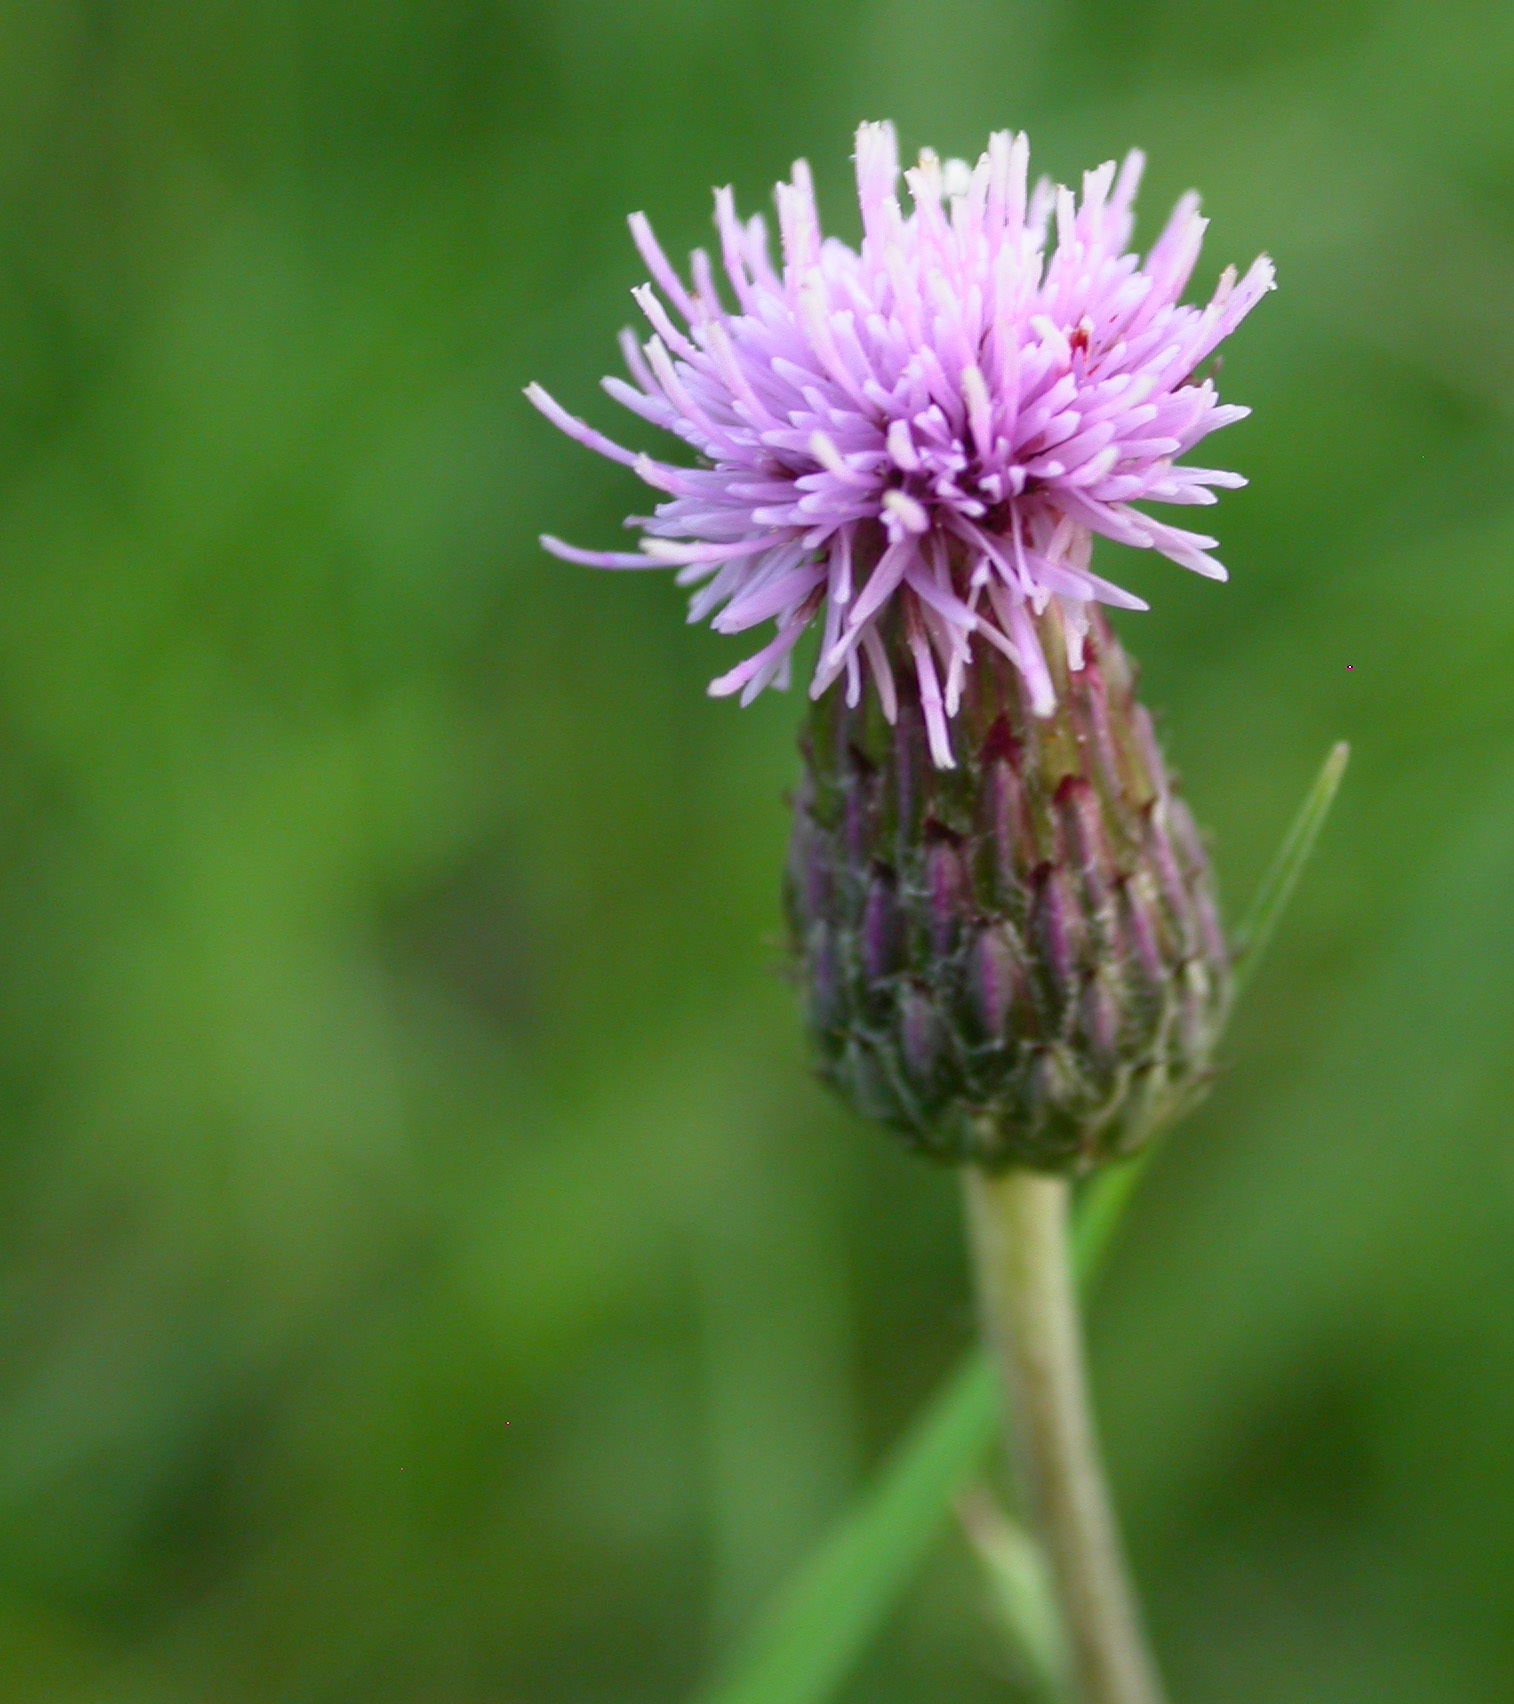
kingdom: Plantae
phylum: Tracheophyta
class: Magnoliopsida
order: Asterales
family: Asteraceae
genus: Cirsium
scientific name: Cirsium arvense
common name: Creeping thistle
